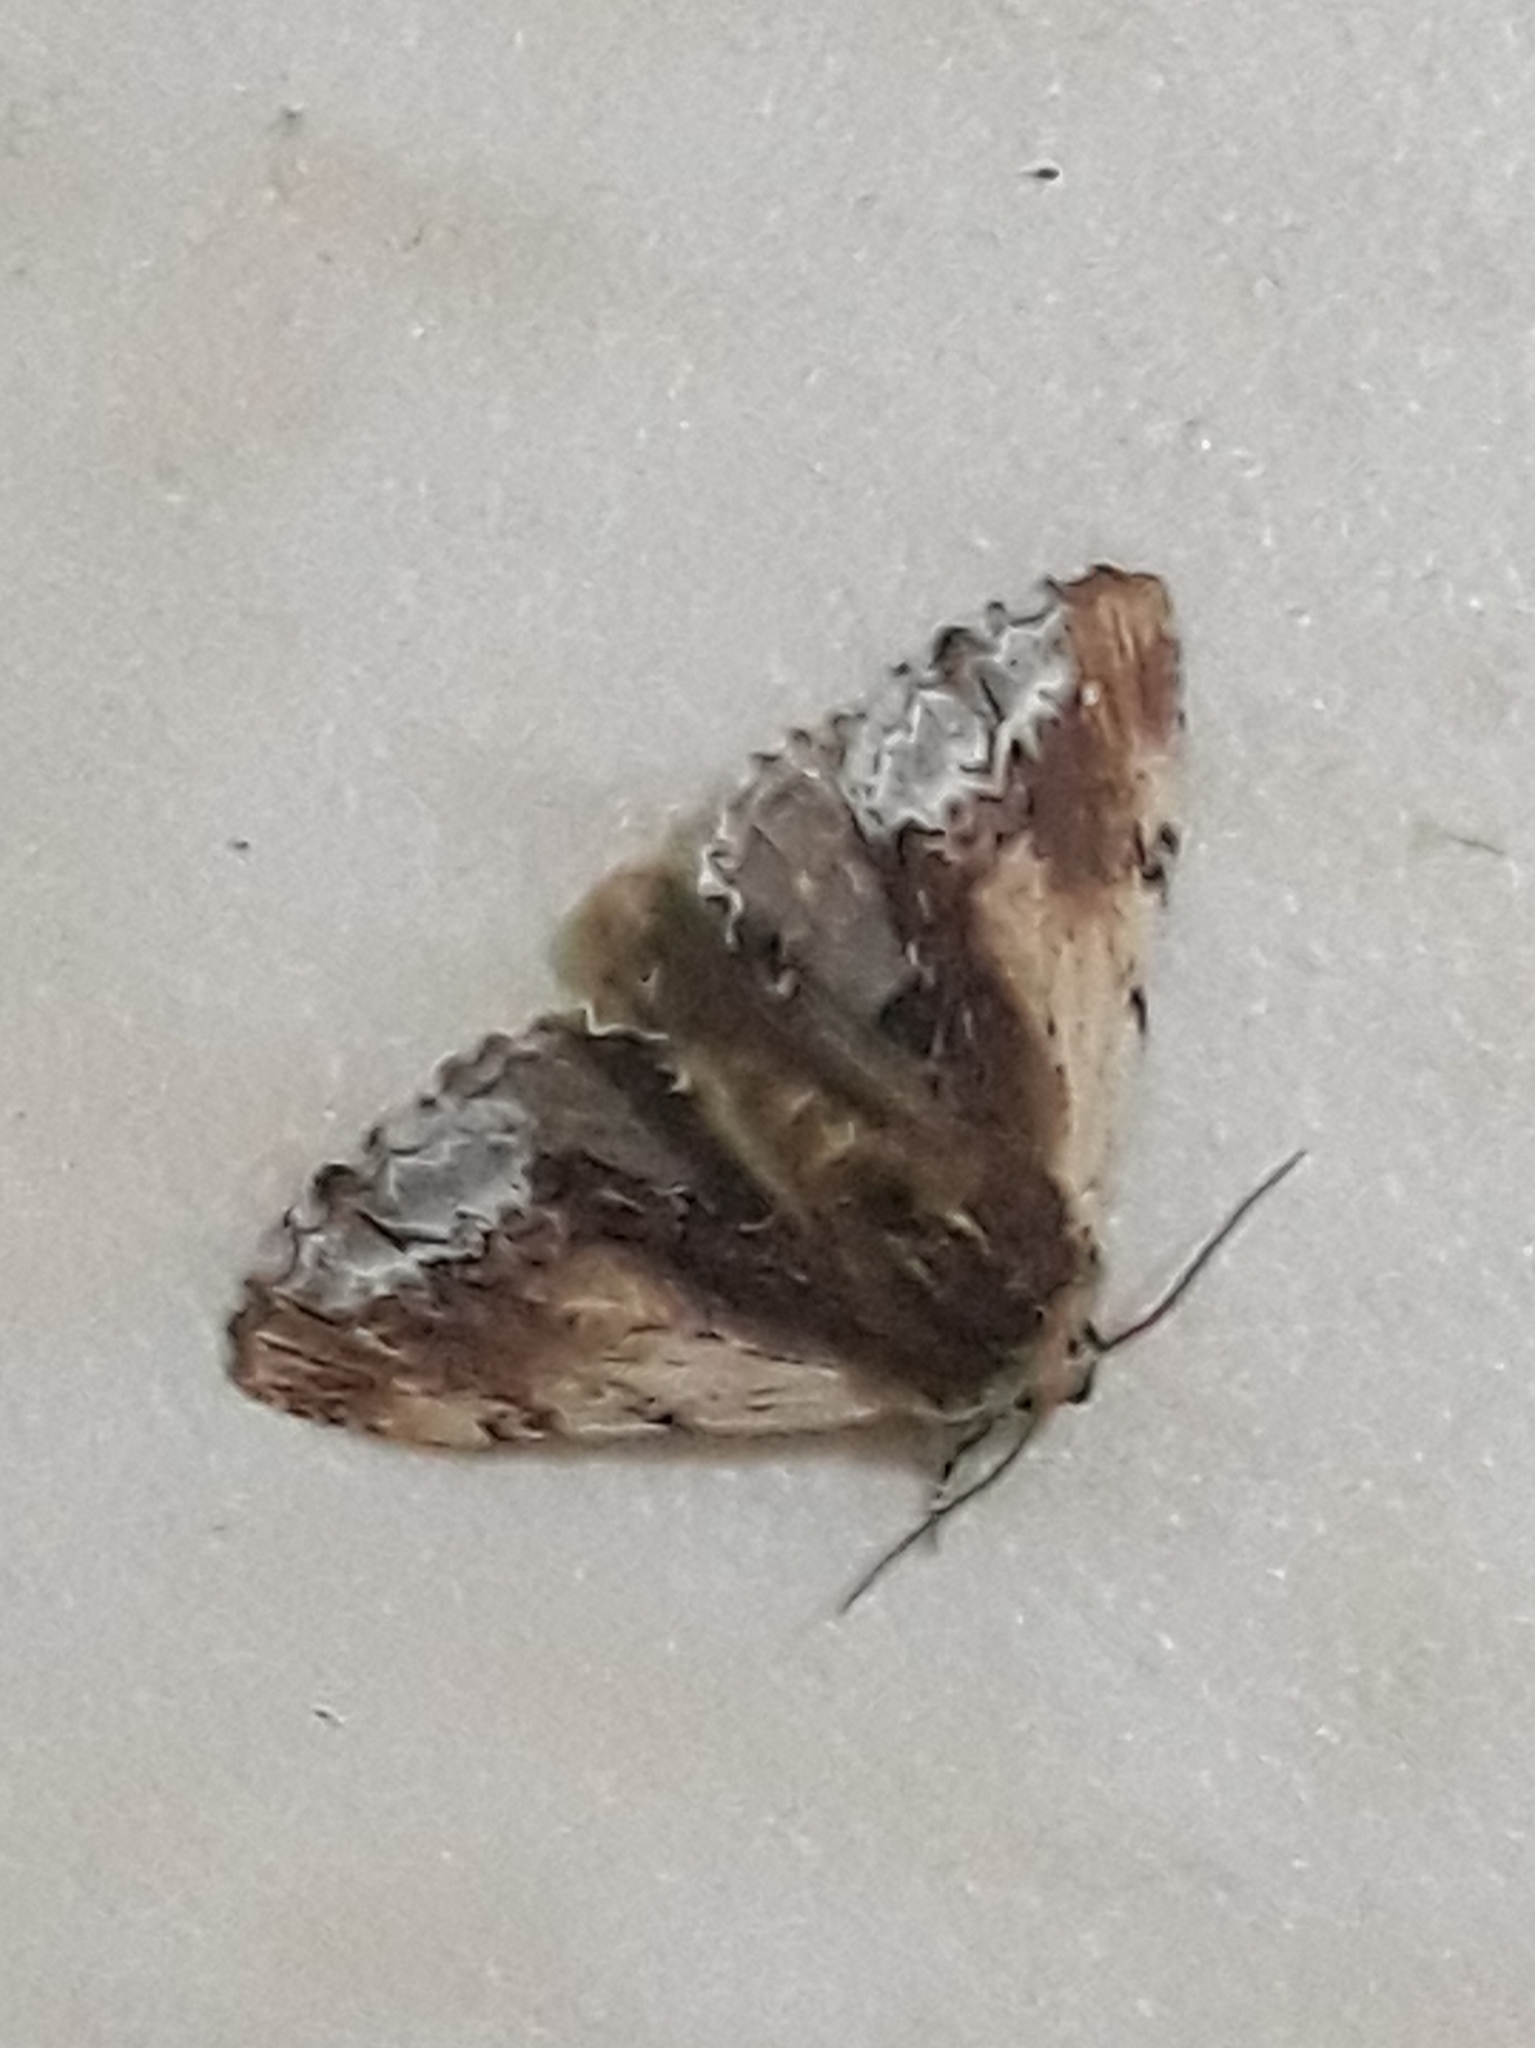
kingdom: Animalia
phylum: Arthropoda
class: Insecta
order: Lepidoptera
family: Notodontidae
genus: Ptilodon
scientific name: Ptilodon cucullina
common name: Maple prominent
